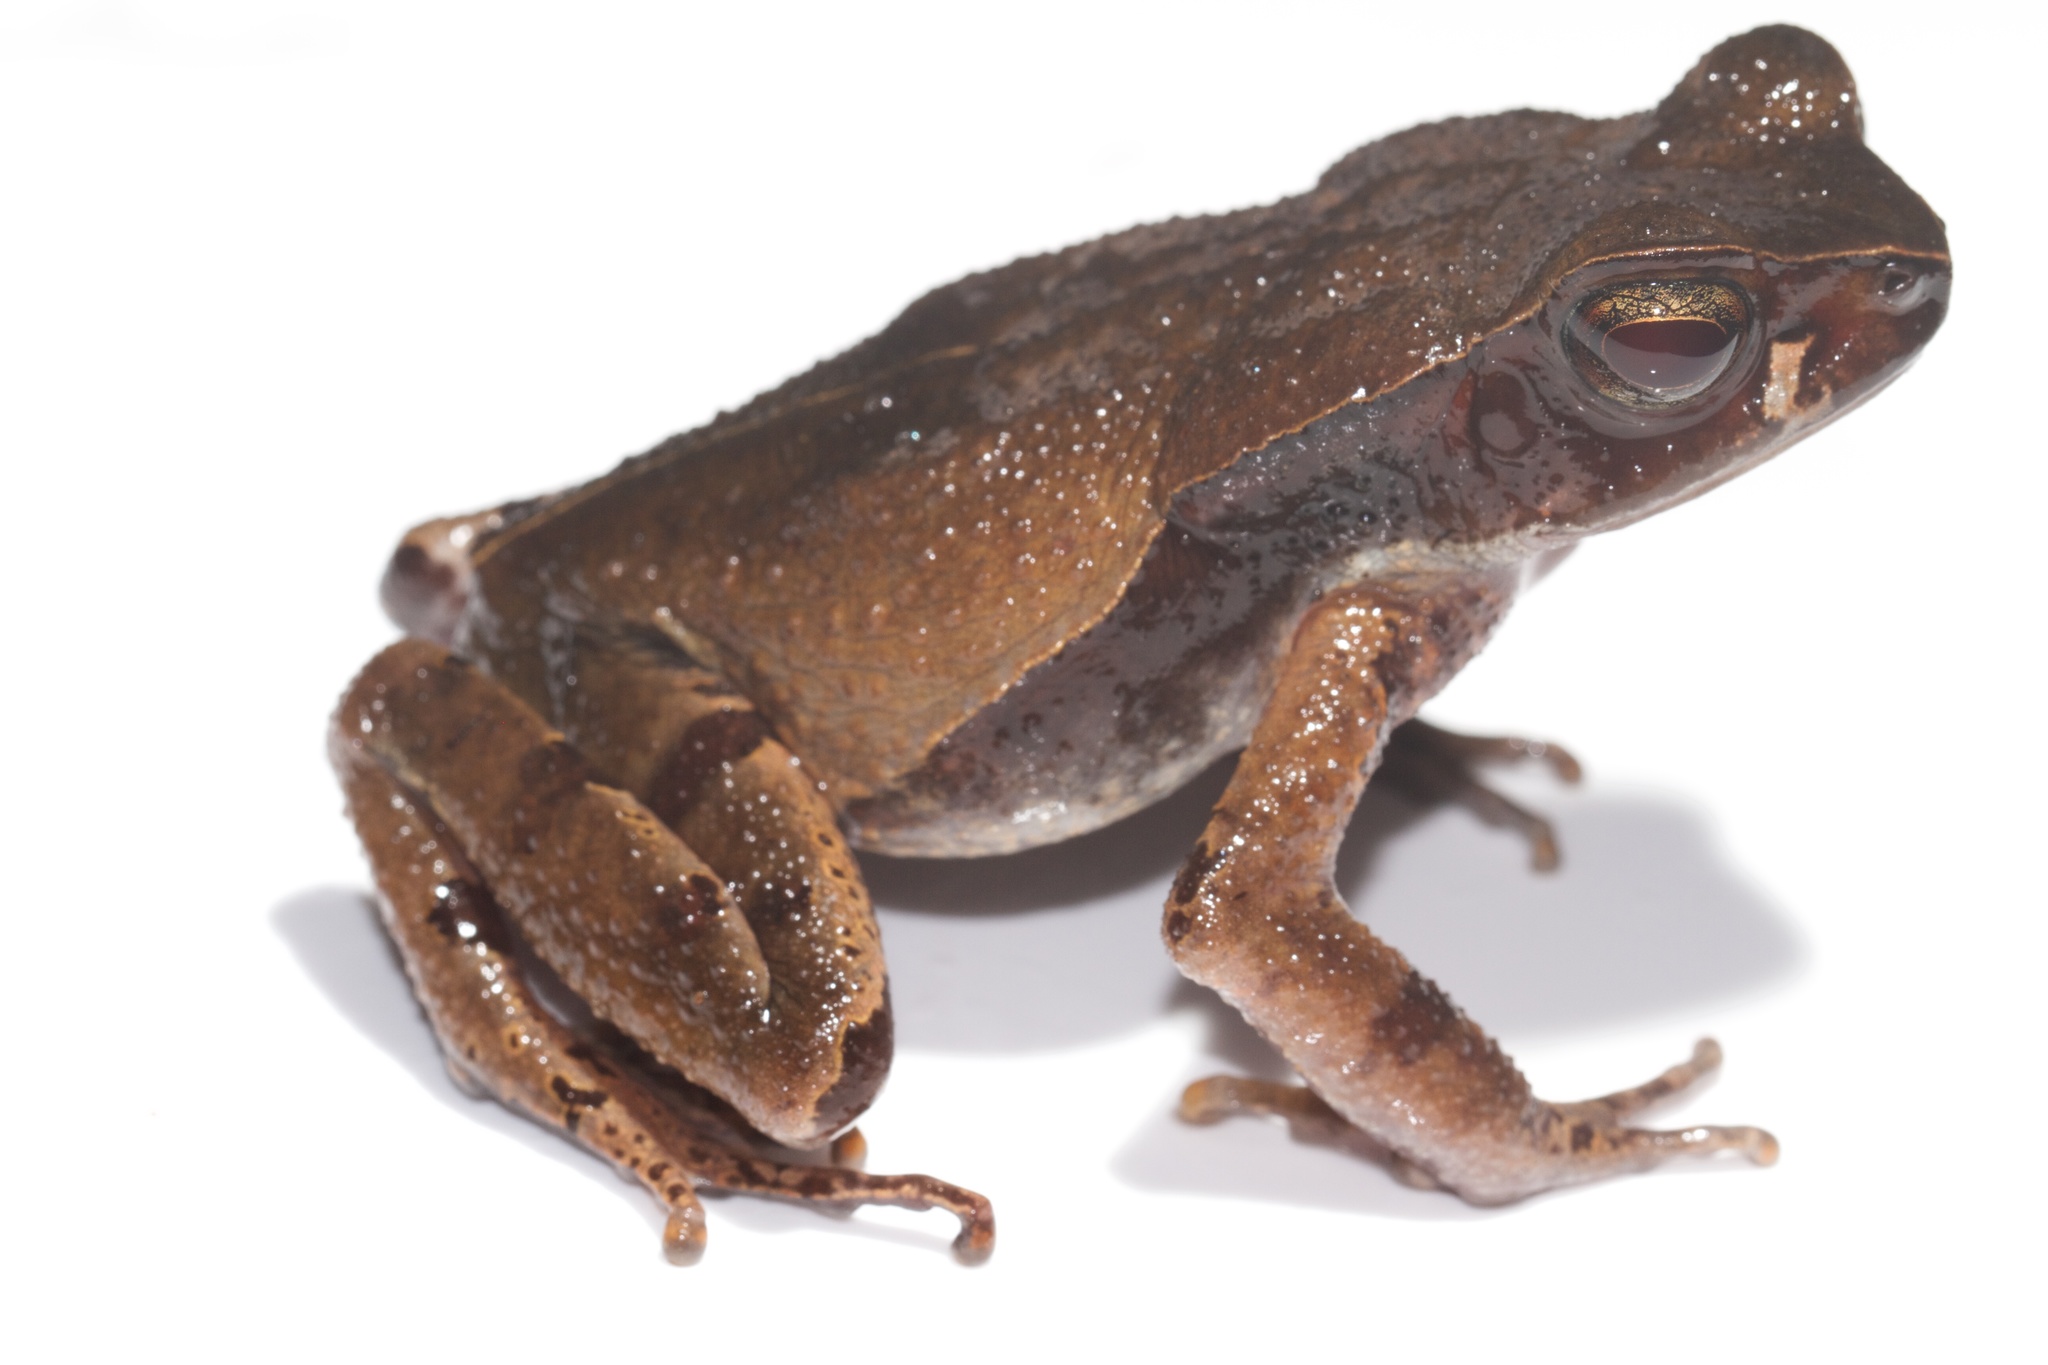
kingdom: Animalia
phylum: Chordata
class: Amphibia
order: Anura
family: Bufonidae
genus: Rhaebo
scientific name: Rhaebo haematiticus
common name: Truando toad
